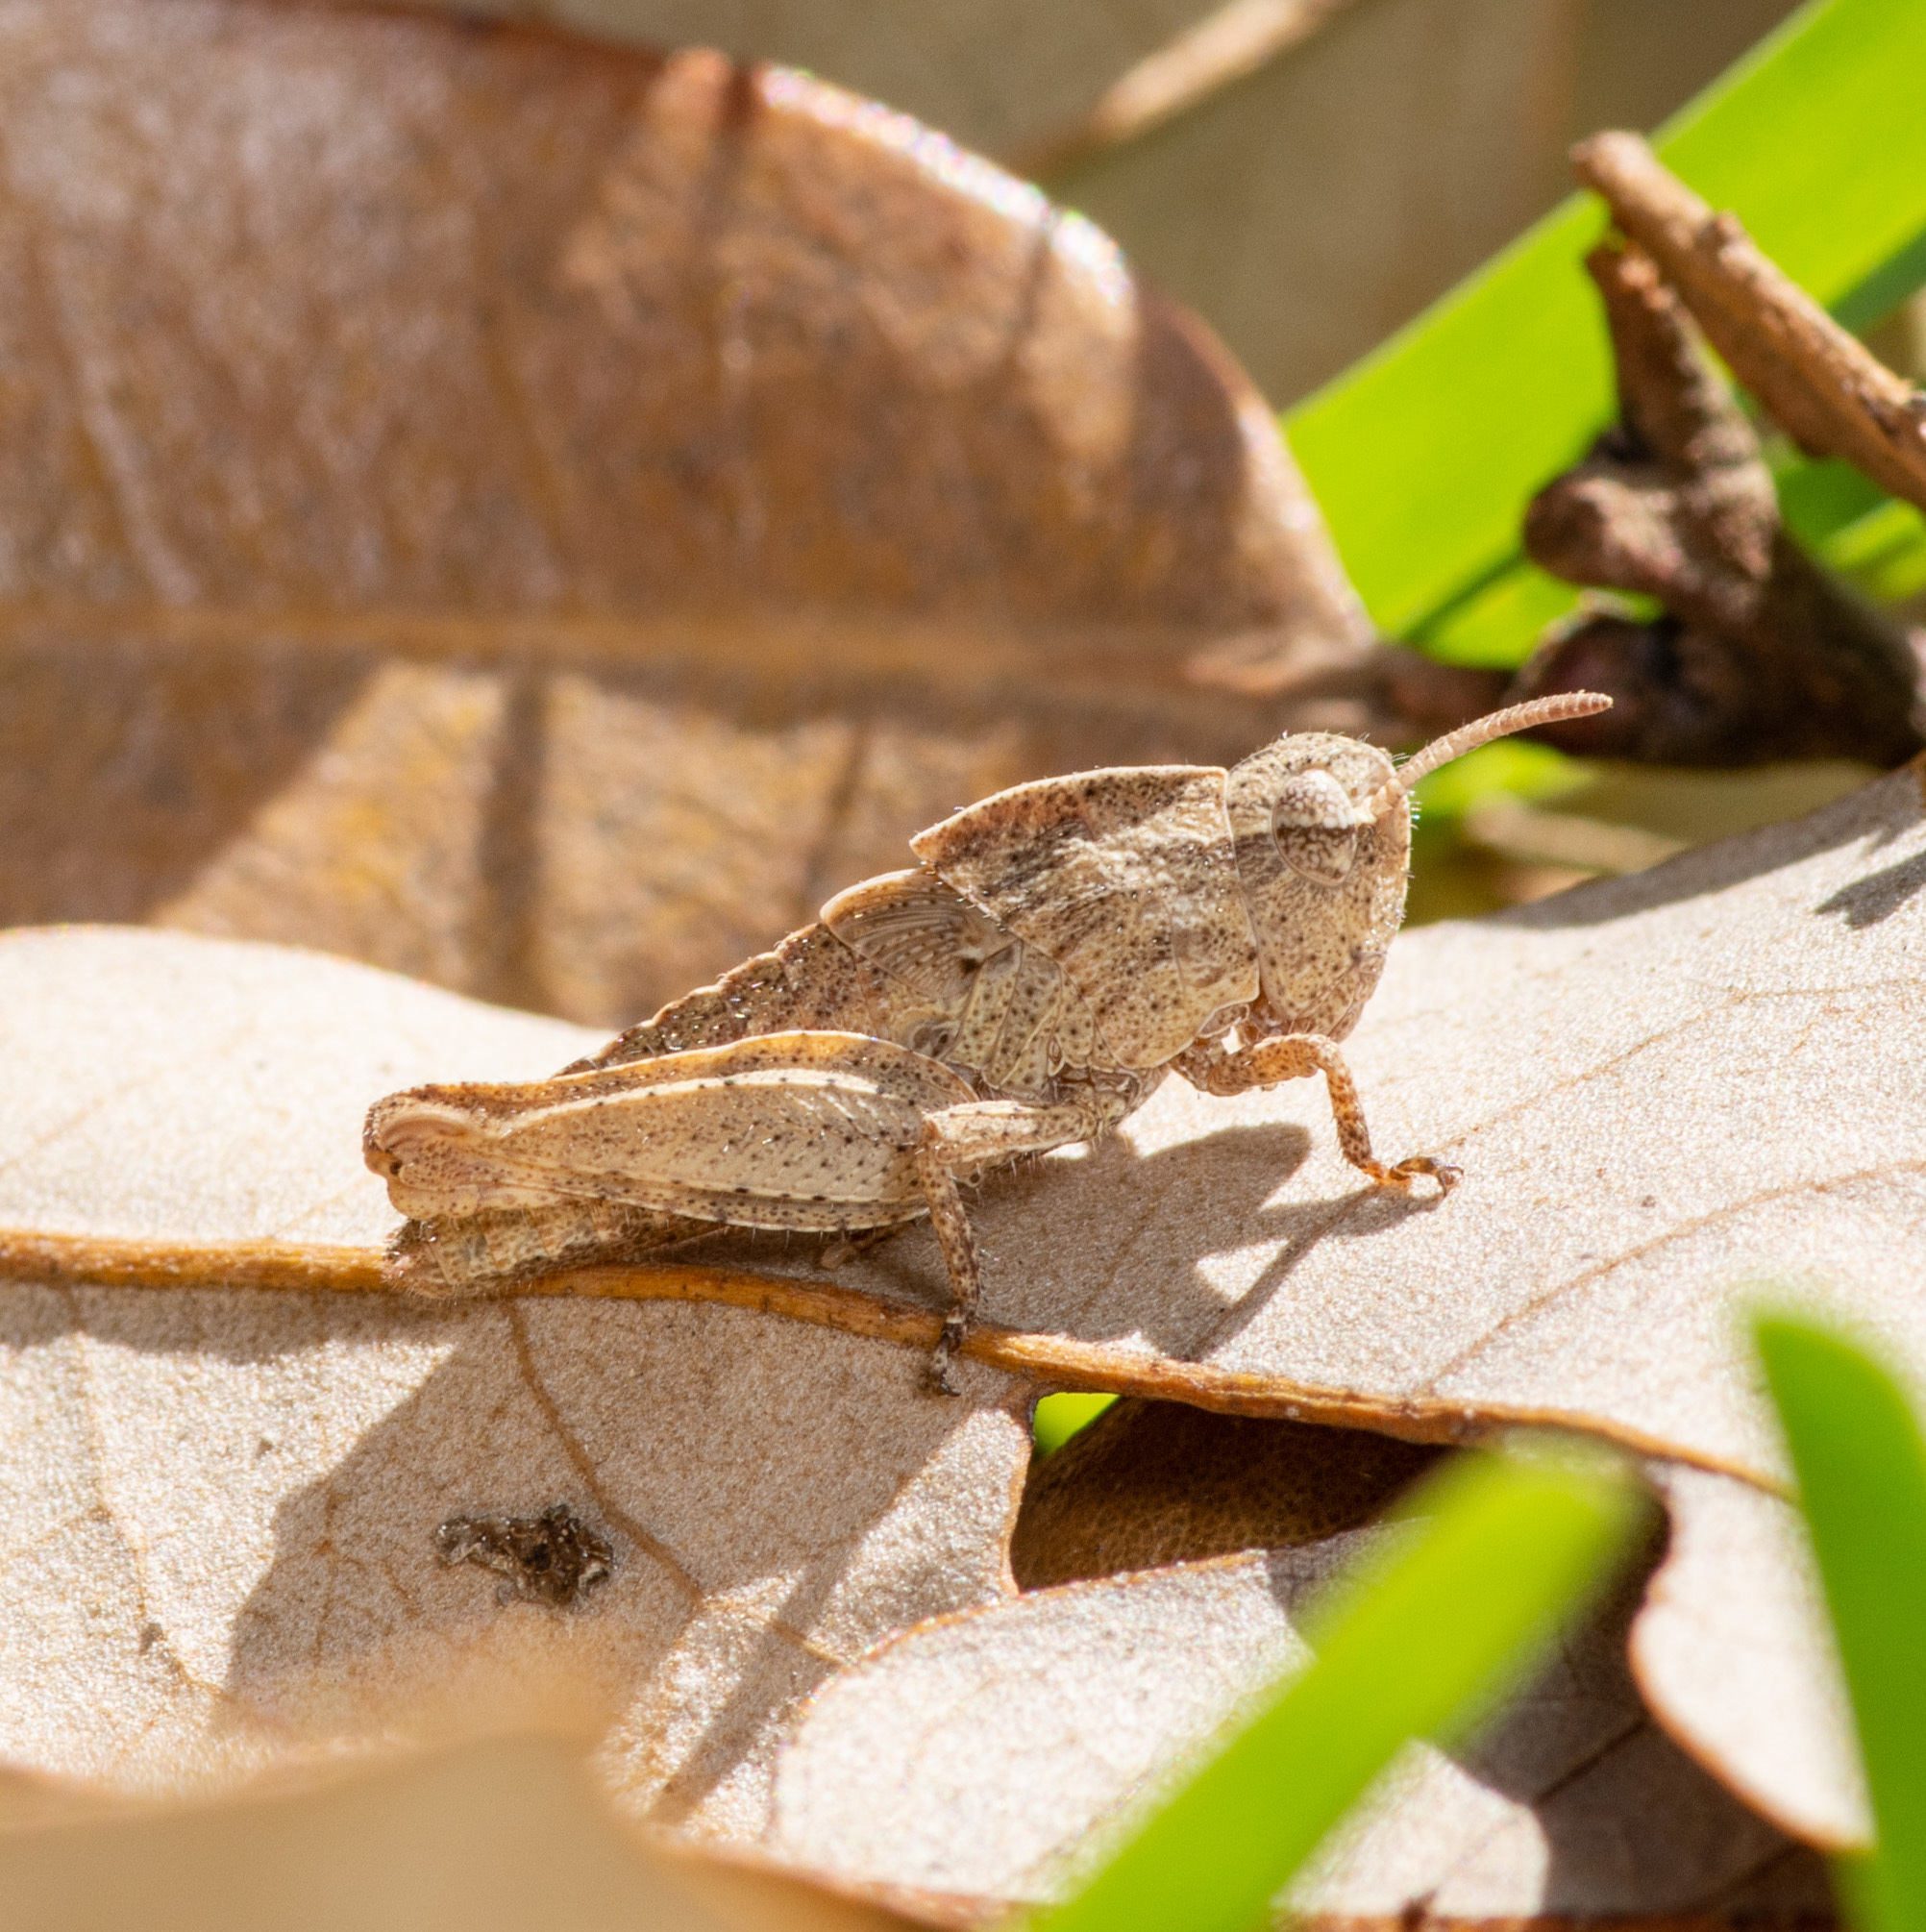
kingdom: Animalia
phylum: Arthropoda
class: Insecta
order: Orthoptera
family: Acrididae
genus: Chortophaga
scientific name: Chortophaga viridifasciata
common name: Green-striped grasshopper
